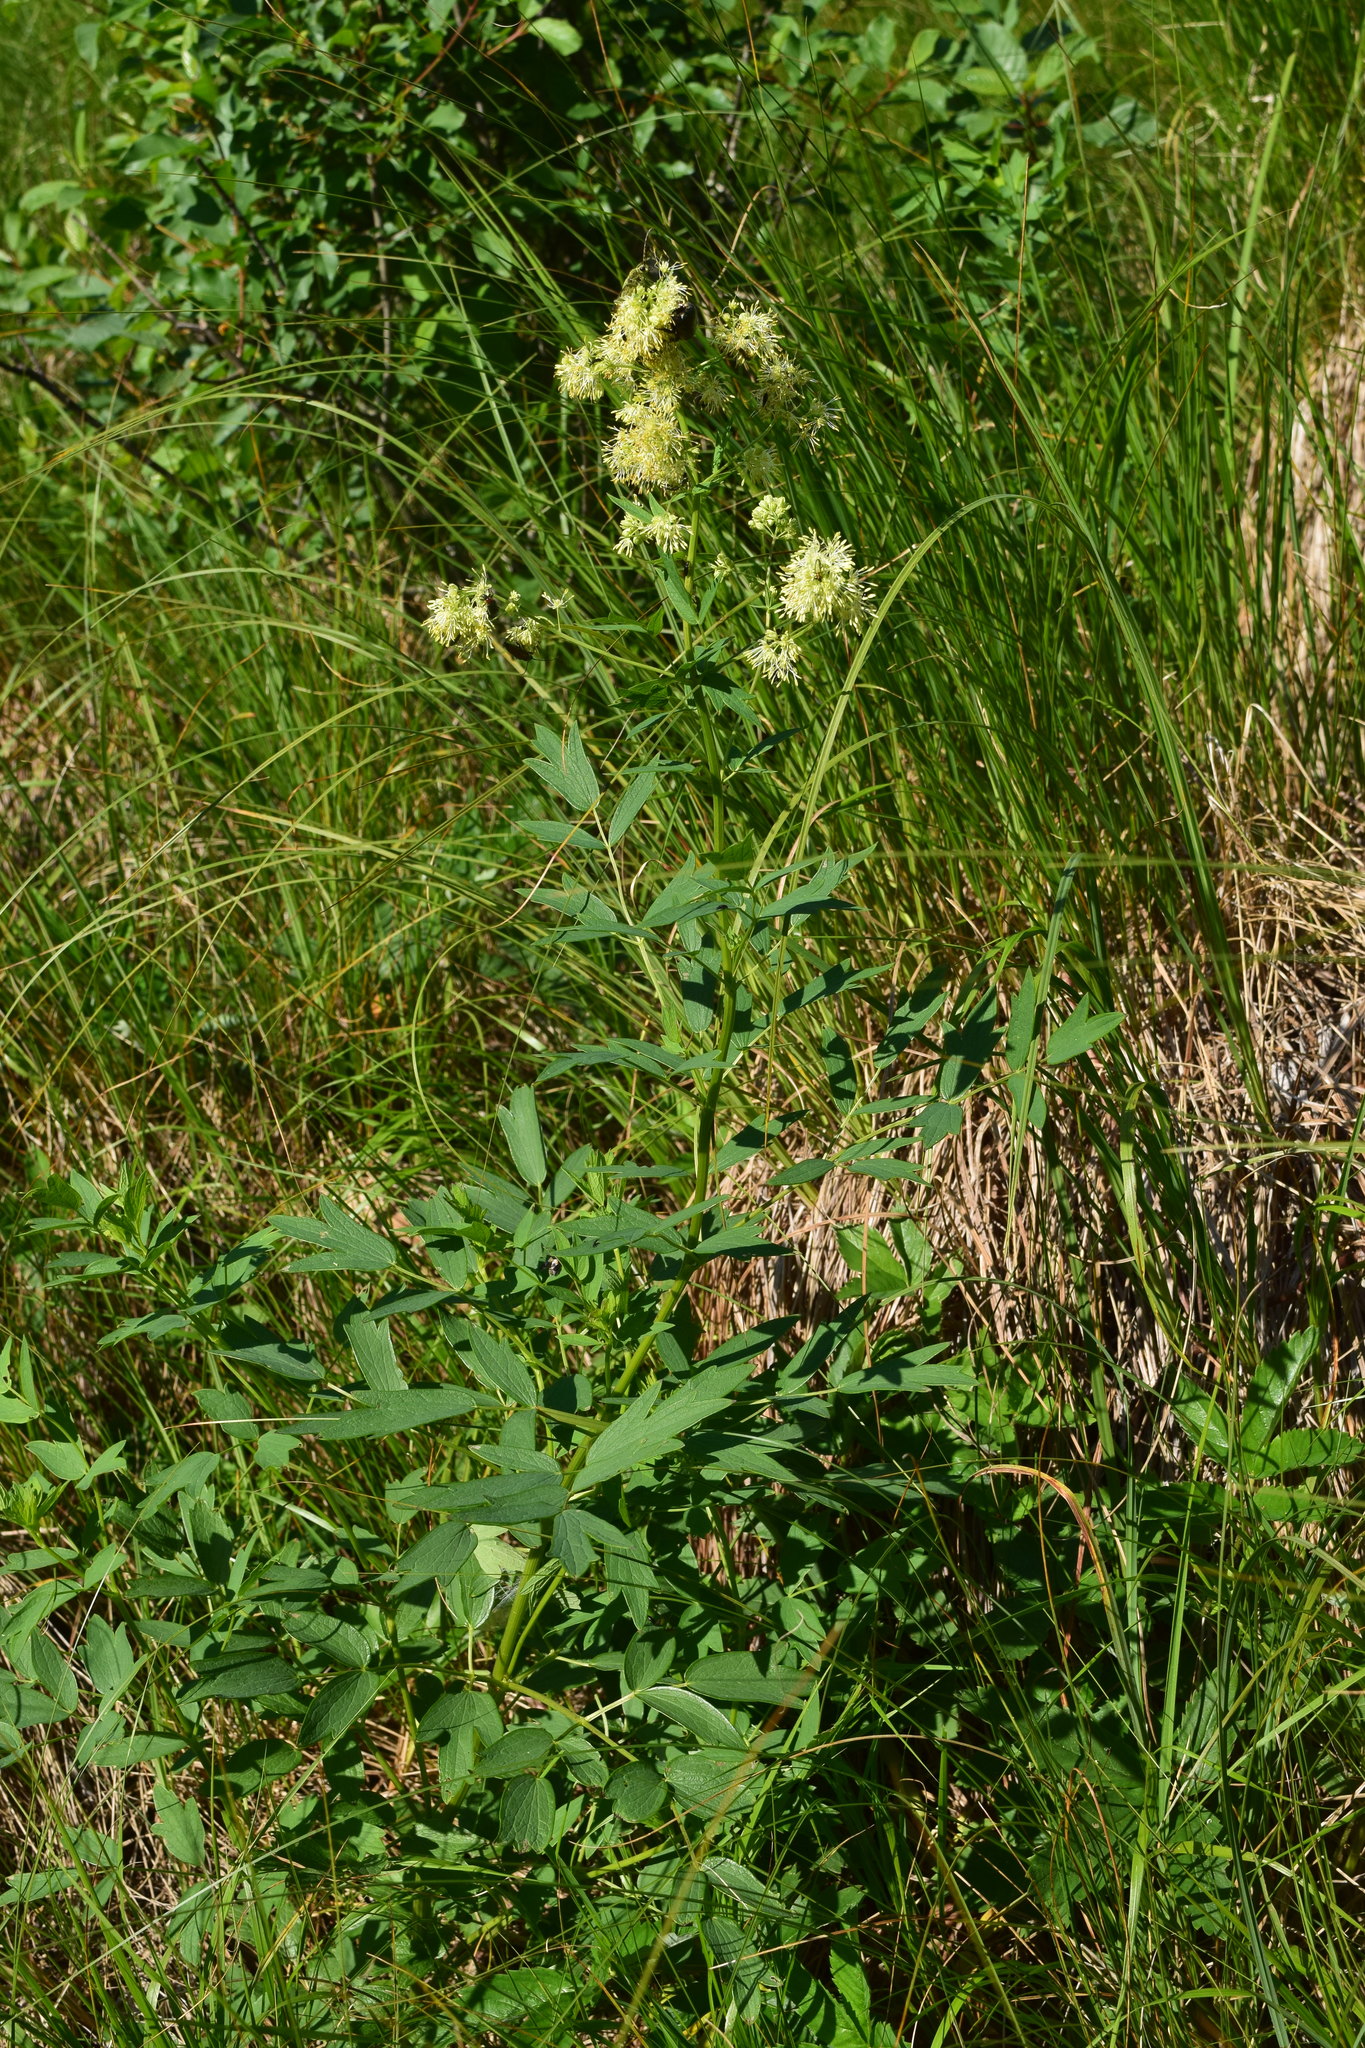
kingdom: Plantae
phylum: Tracheophyta
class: Magnoliopsida
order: Ranunculales
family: Ranunculaceae
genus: Thalictrum
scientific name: Thalictrum flavum
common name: Common meadow-rue
